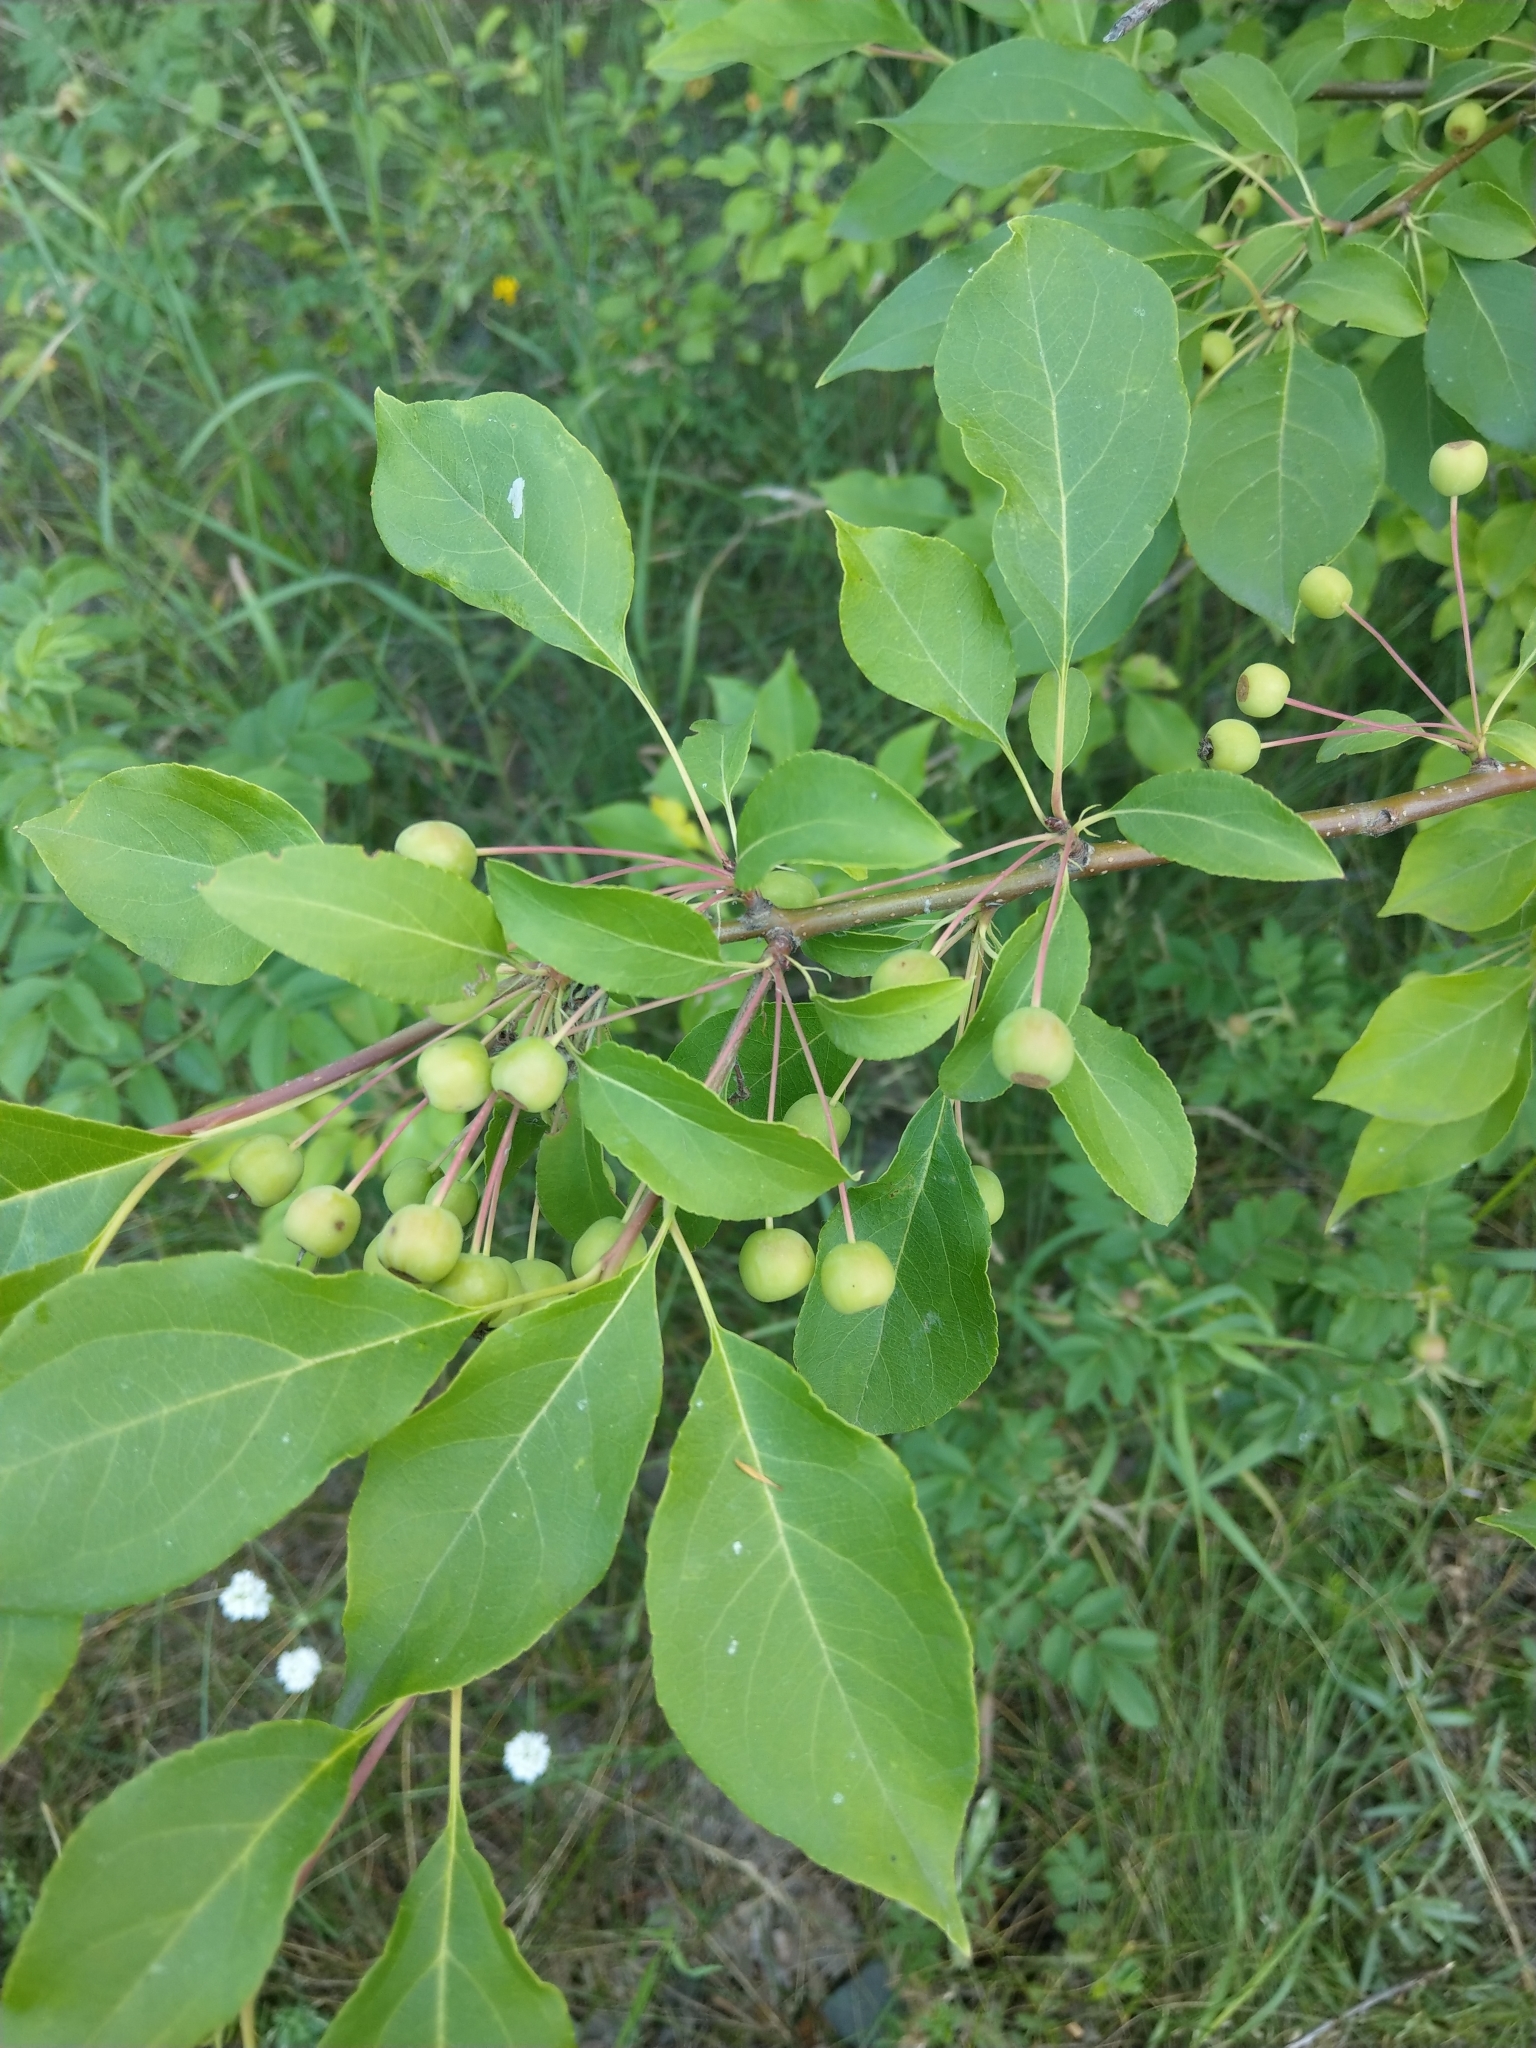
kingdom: Plantae
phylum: Tracheophyta
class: Magnoliopsida
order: Rosales
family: Rosaceae
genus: Malus
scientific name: Malus baccata
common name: Siberian crab
